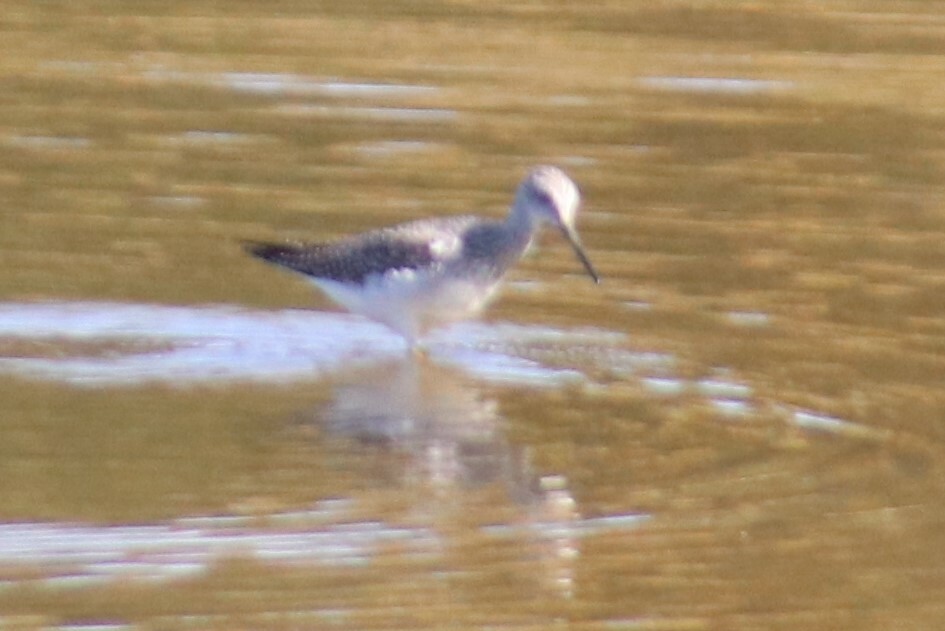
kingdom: Animalia
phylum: Chordata
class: Aves
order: Charadriiformes
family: Scolopacidae
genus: Tringa
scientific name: Tringa flavipes
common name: Lesser yellowlegs
